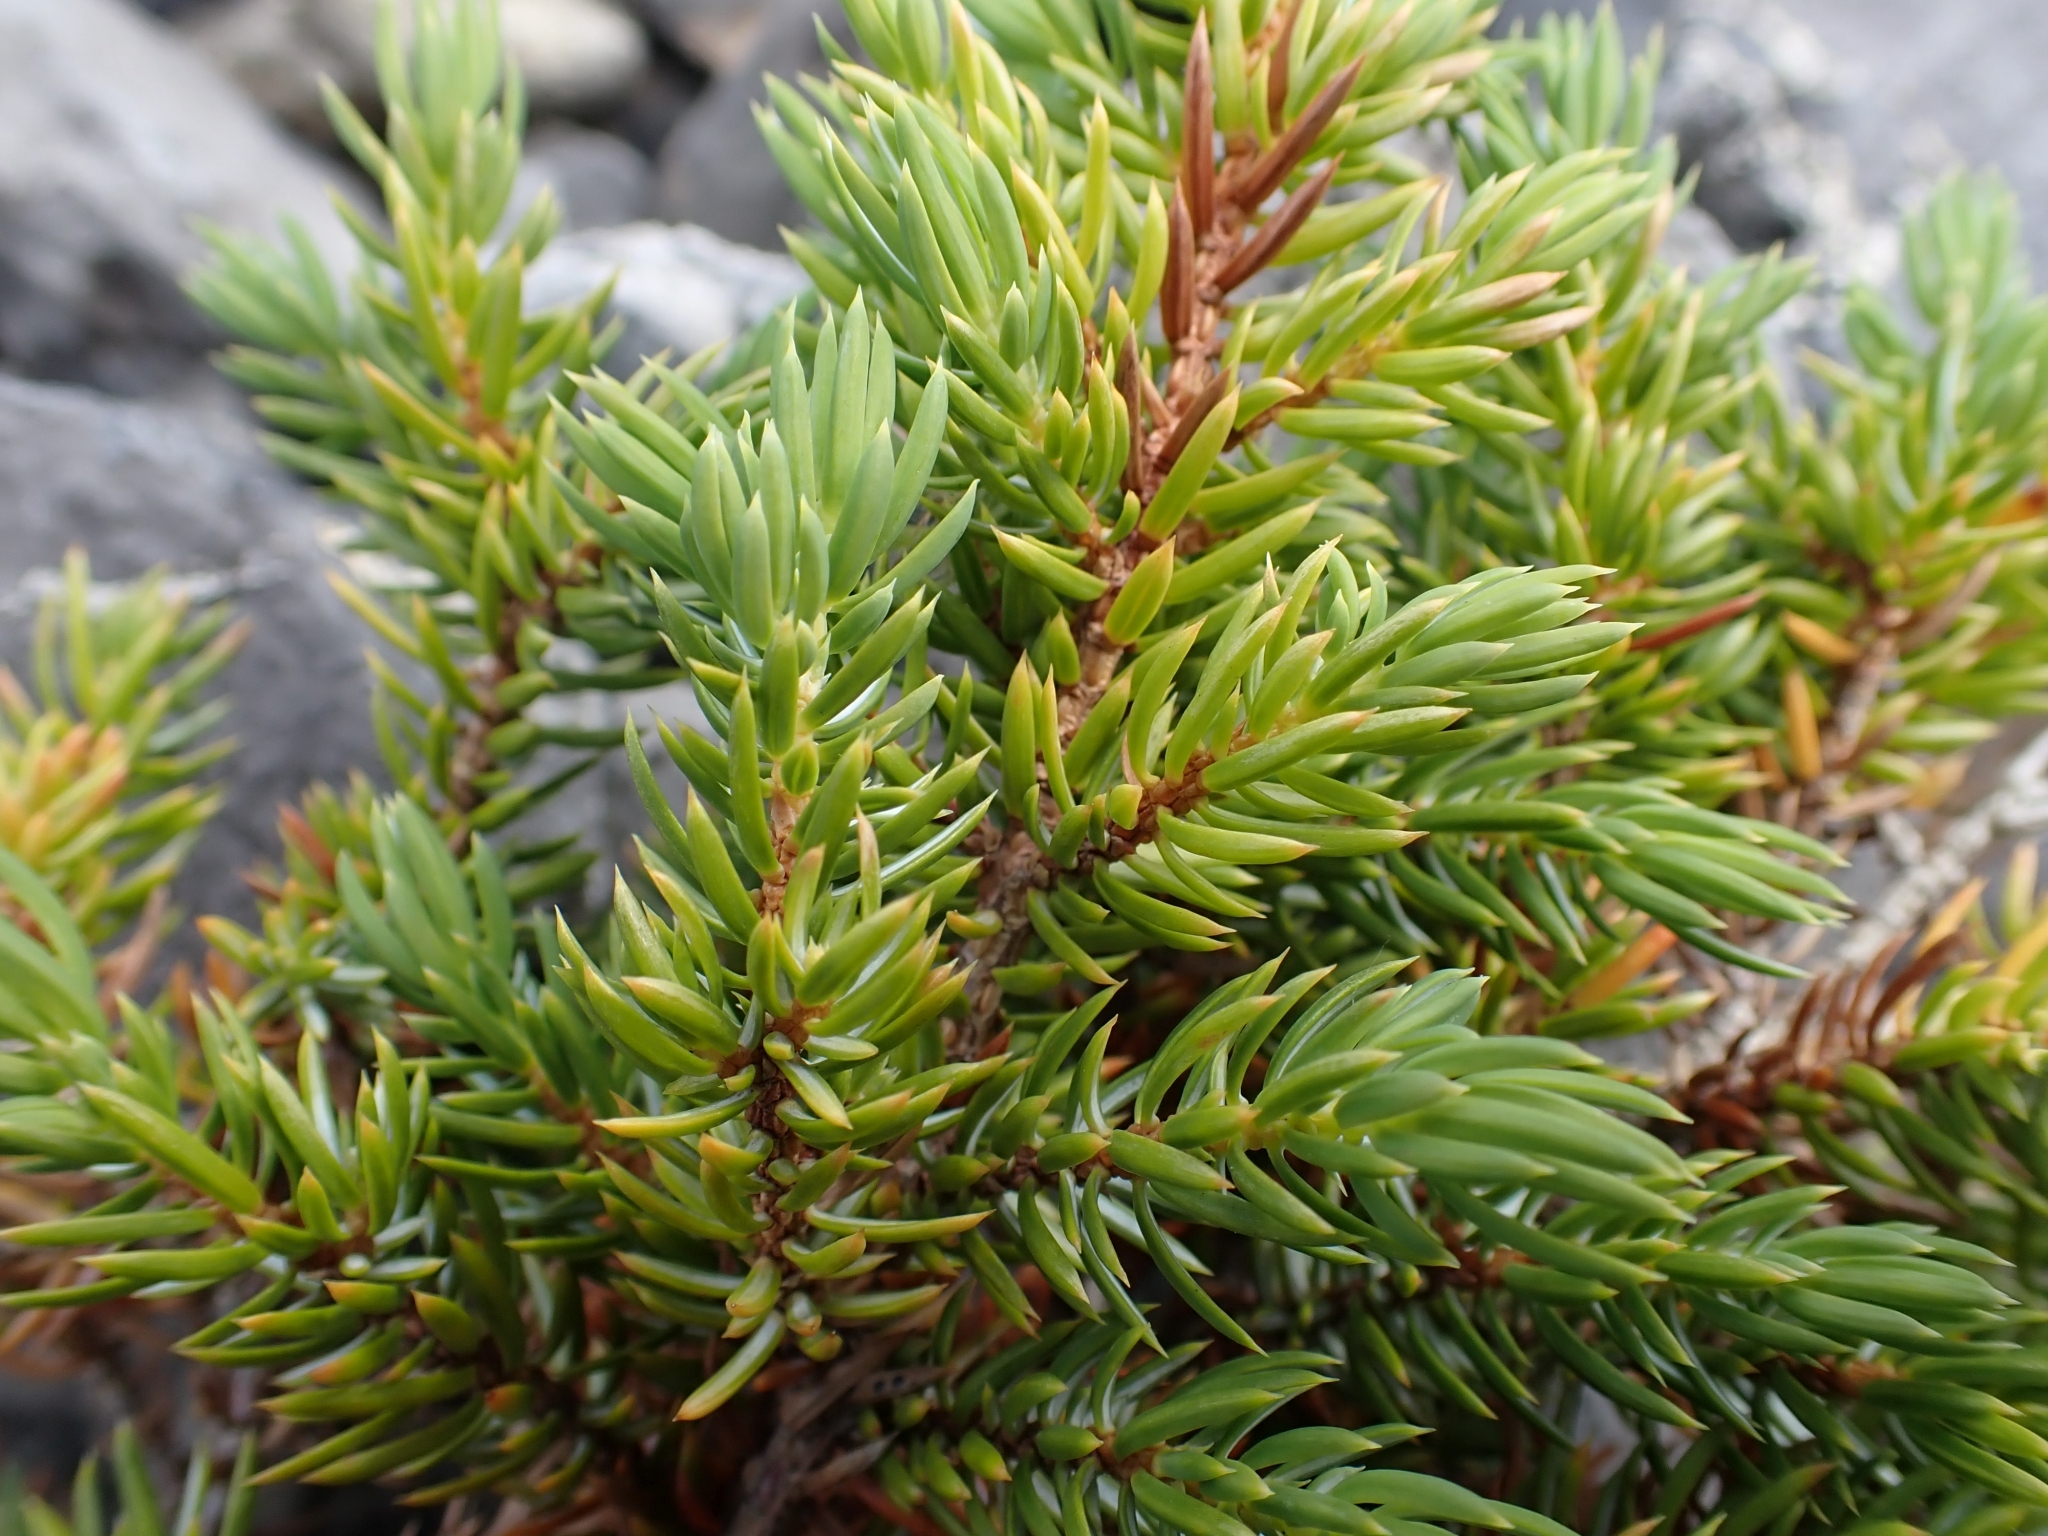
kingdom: Plantae
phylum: Tracheophyta
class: Pinopsida
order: Pinales
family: Cupressaceae
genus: Juniperus
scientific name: Juniperus communis
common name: Common juniper
